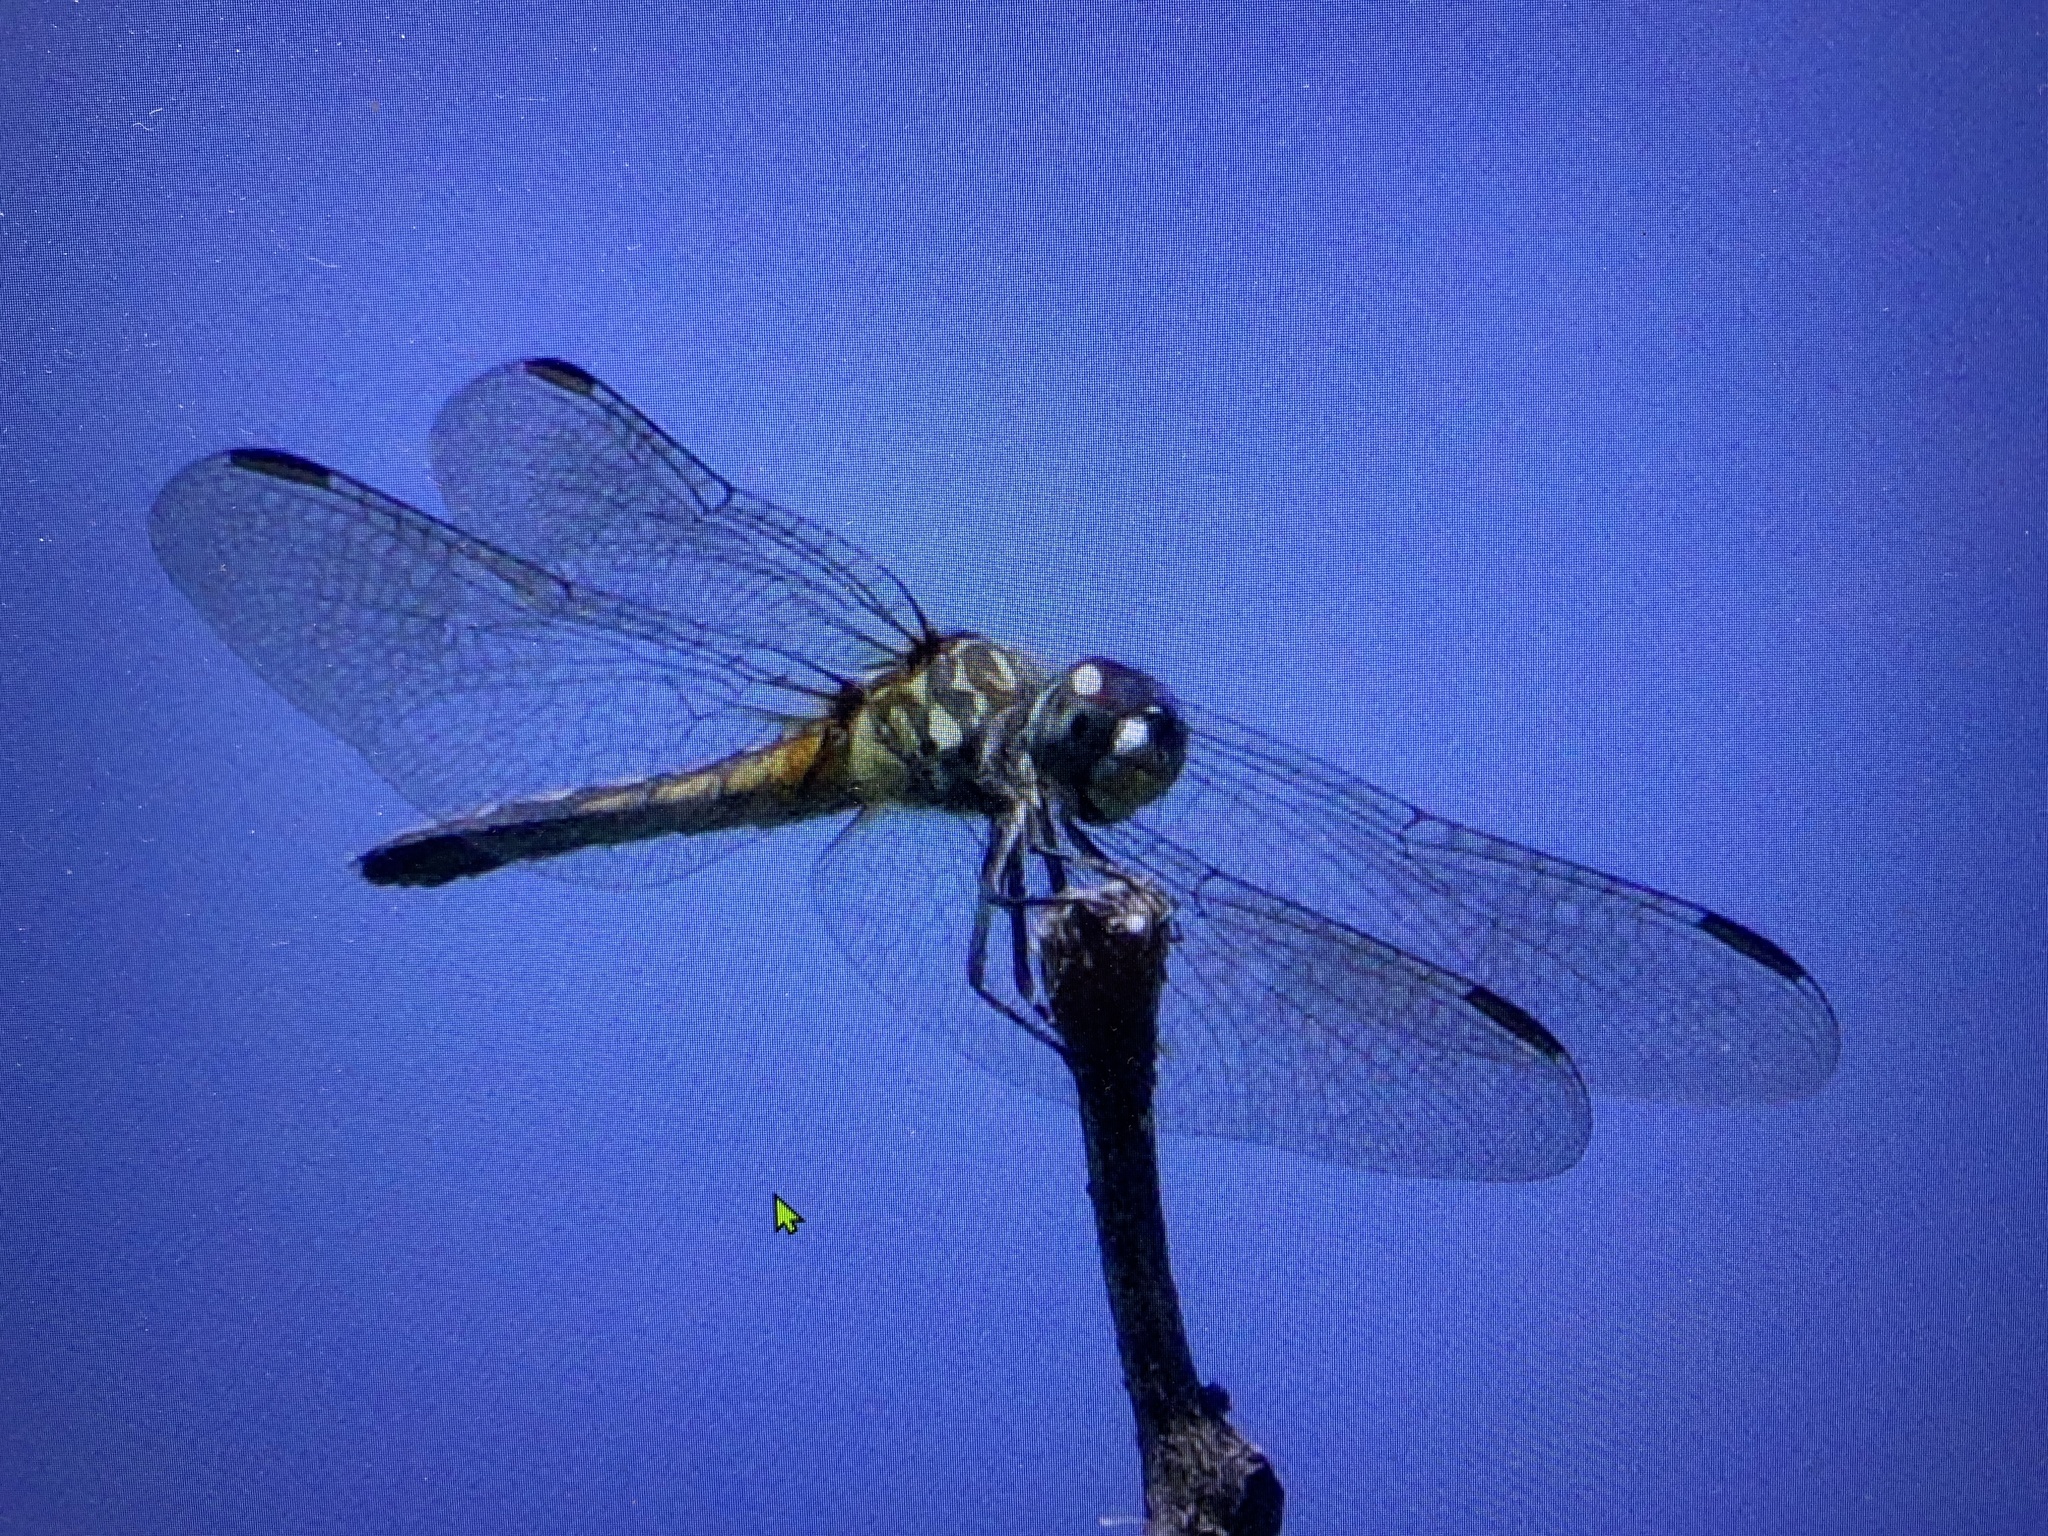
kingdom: Animalia
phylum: Arthropoda
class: Insecta
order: Odonata
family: Libellulidae
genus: Pachydiplax
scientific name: Pachydiplax longipennis
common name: Blue dasher
